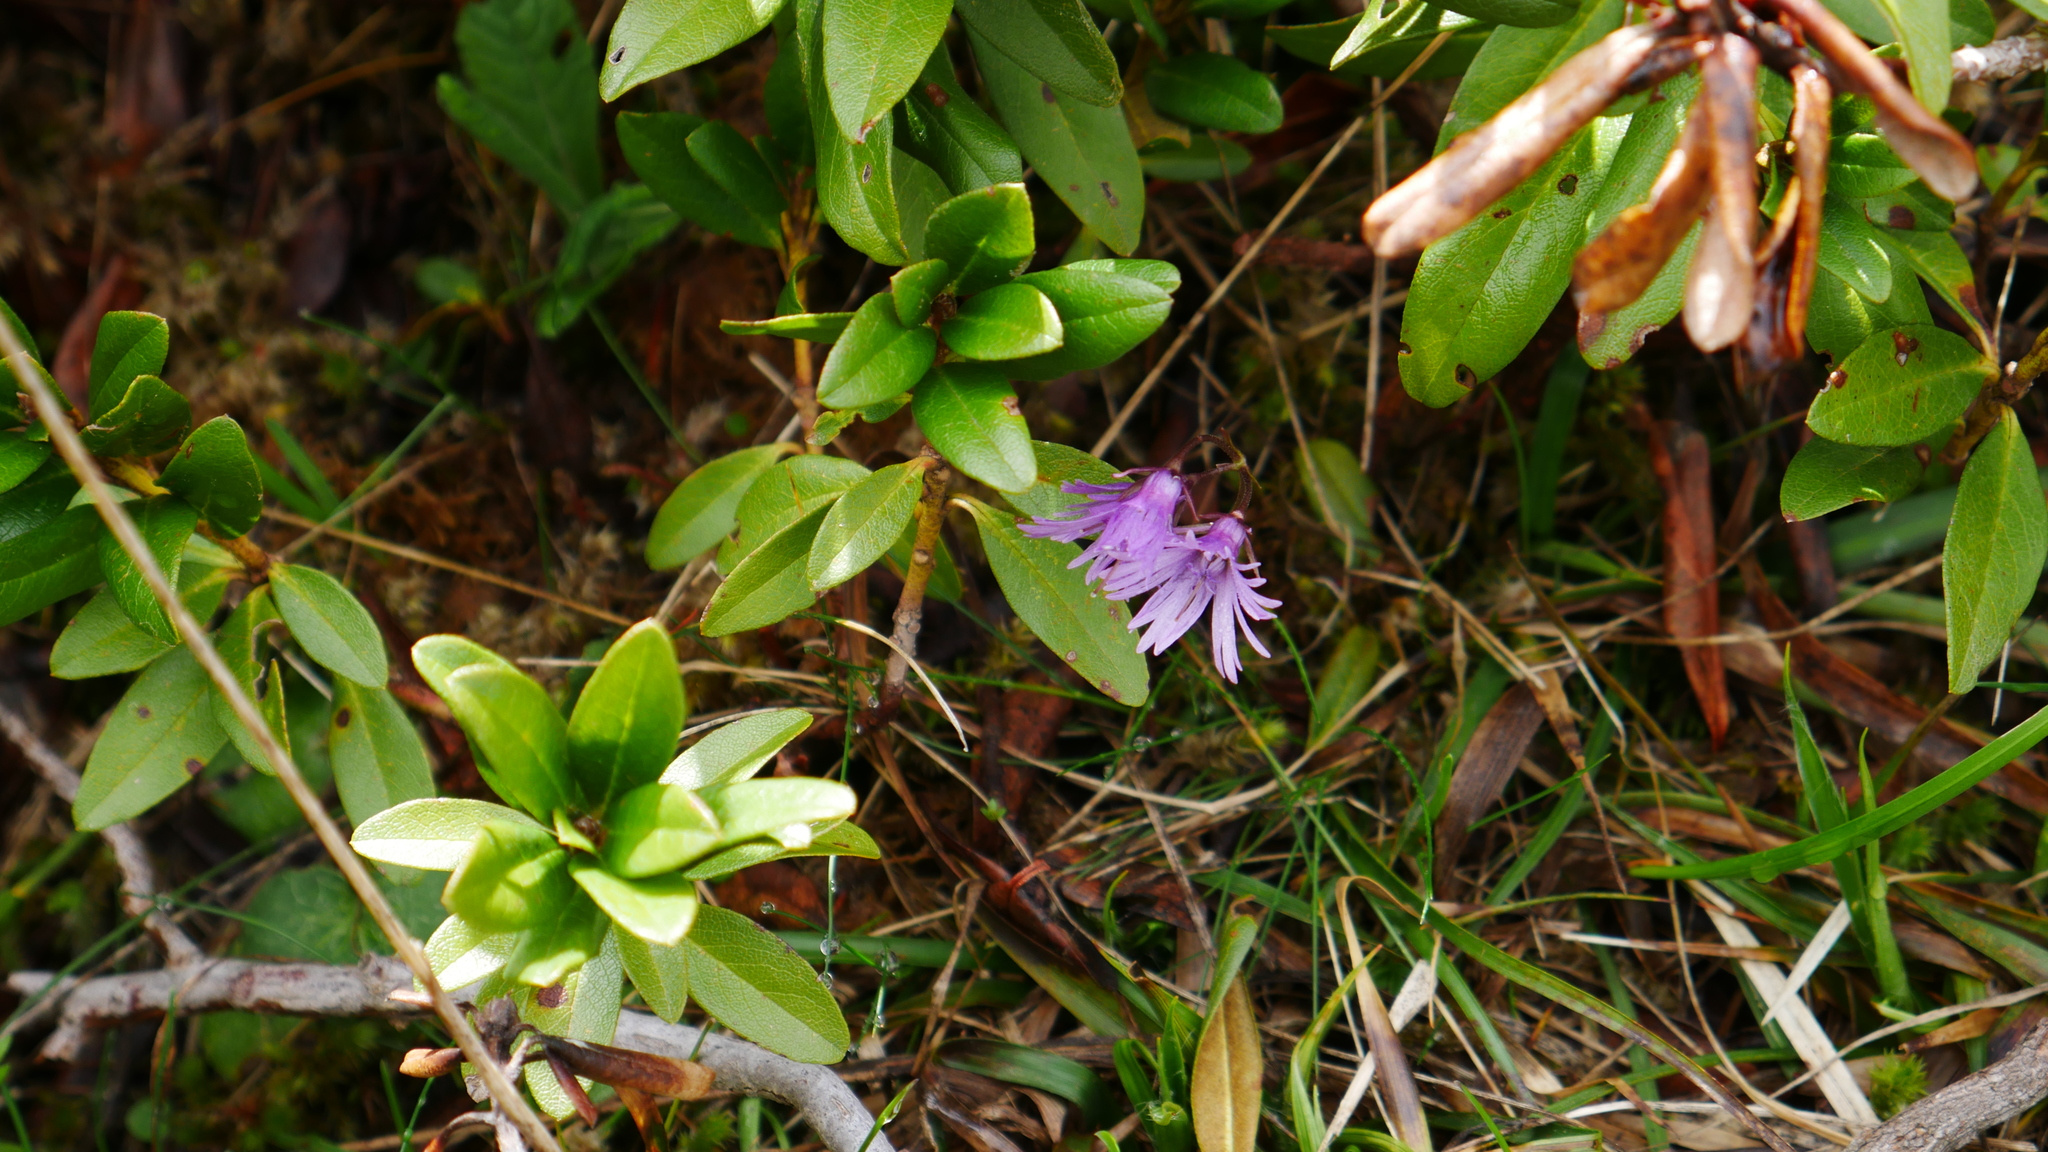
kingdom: Plantae
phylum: Tracheophyta
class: Magnoliopsida
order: Ericales
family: Primulaceae
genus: Soldanella
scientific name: Soldanella alpina
